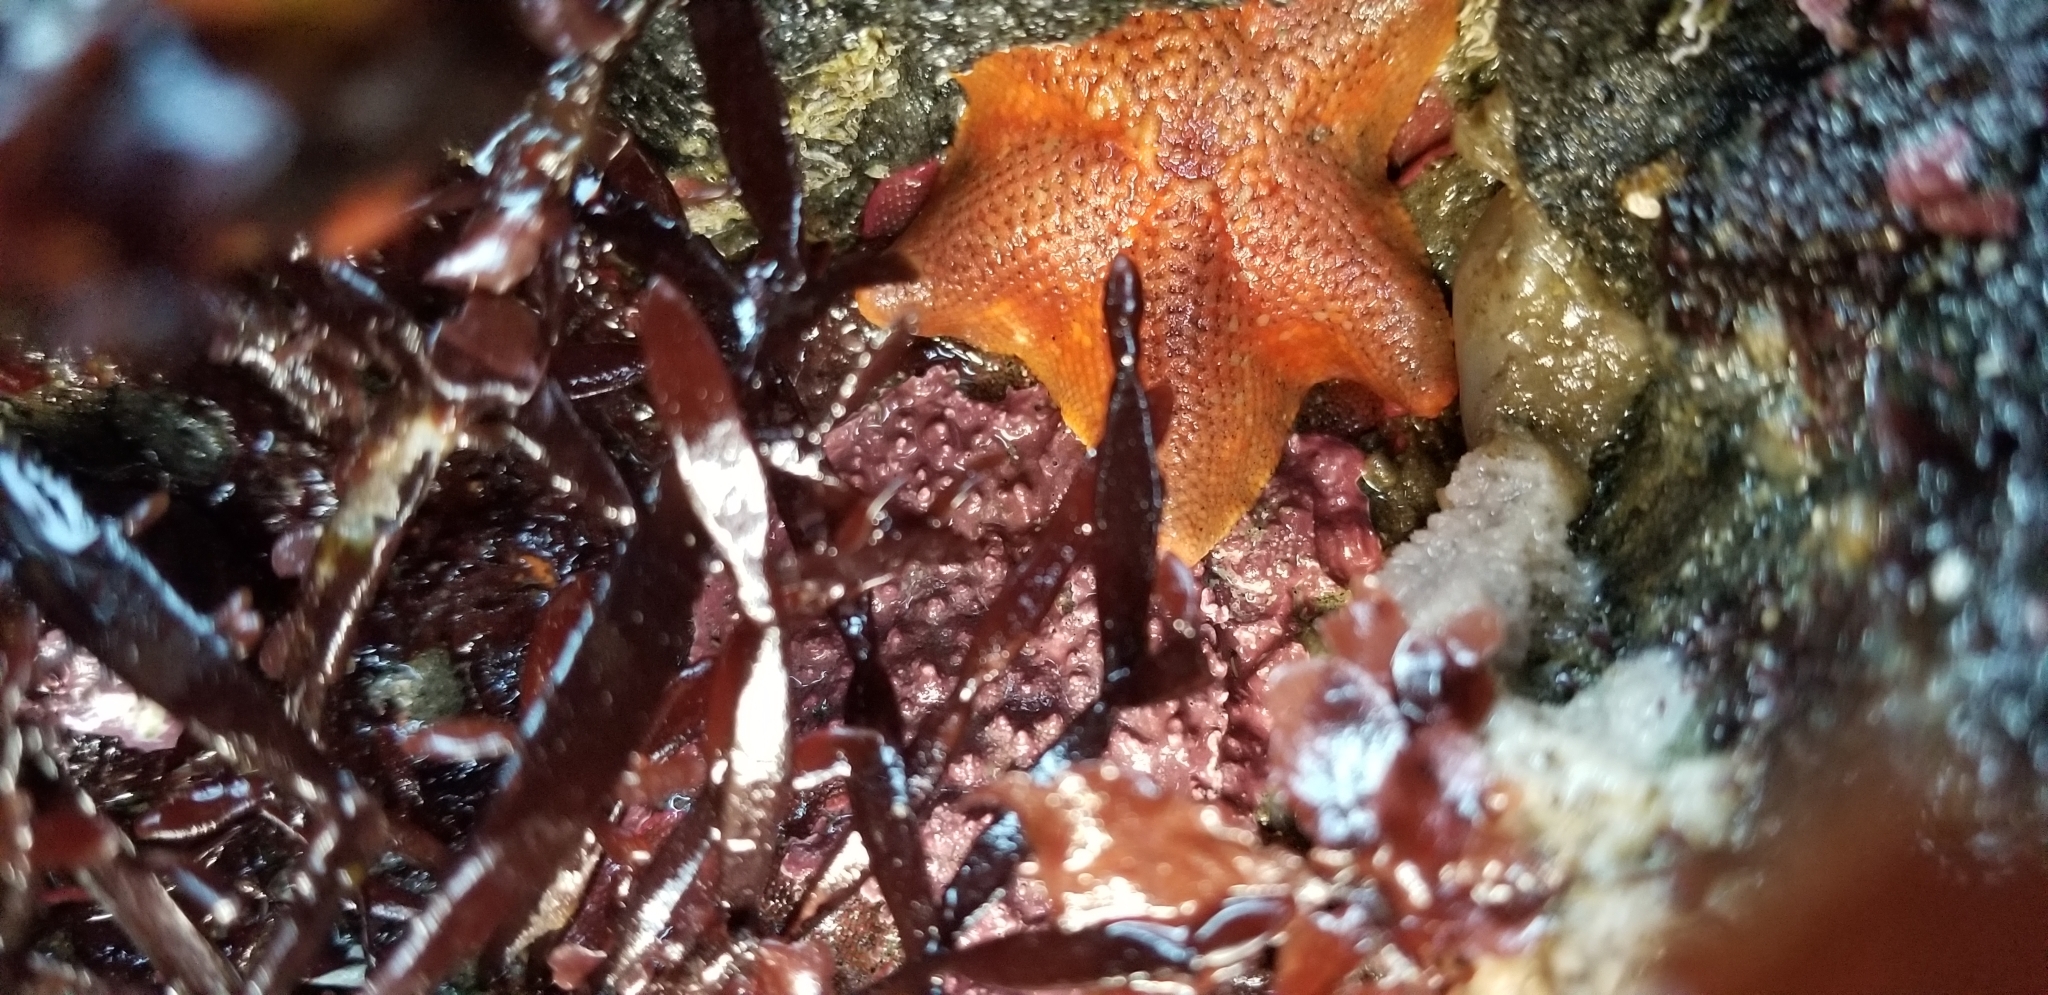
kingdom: Animalia
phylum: Echinodermata
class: Asteroidea
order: Valvatida
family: Asterinidae
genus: Patiria
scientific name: Patiria miniata
